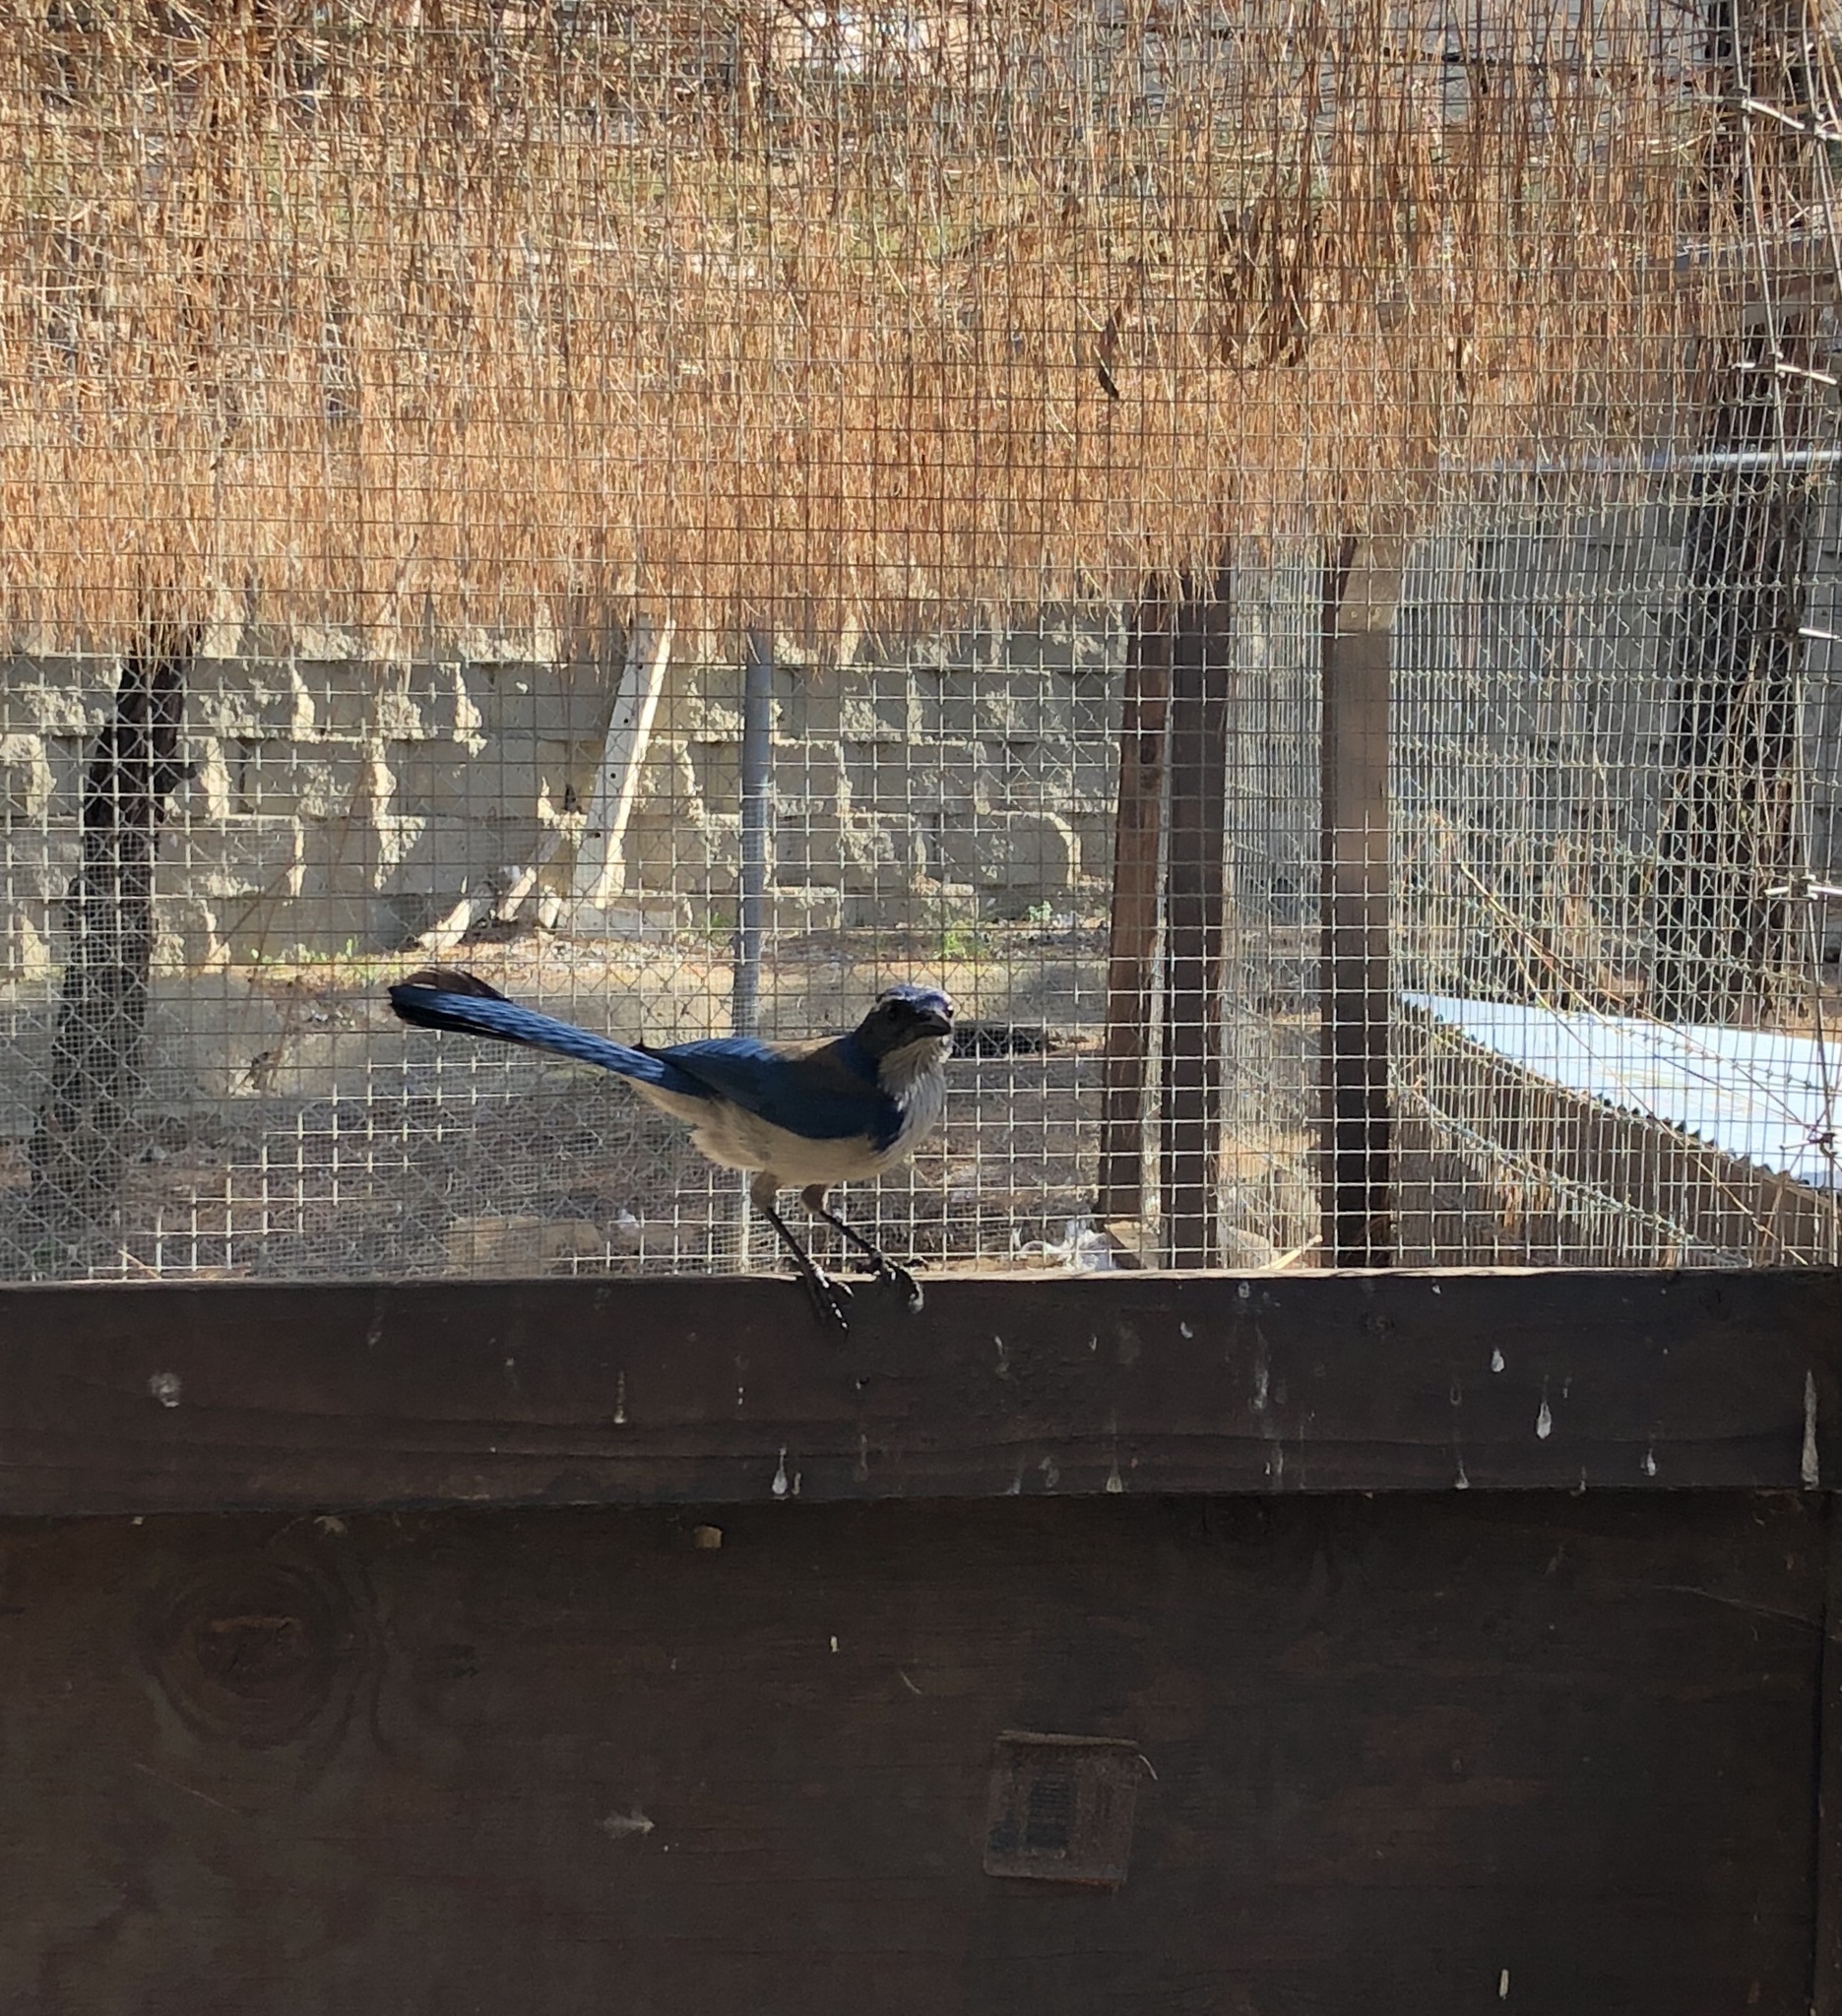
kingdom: Animalia
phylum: Chordata
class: Aves
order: Passeriformes
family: Corvidae
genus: Aphelocoma
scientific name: Aphelocoma californica
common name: California scrub-jay
